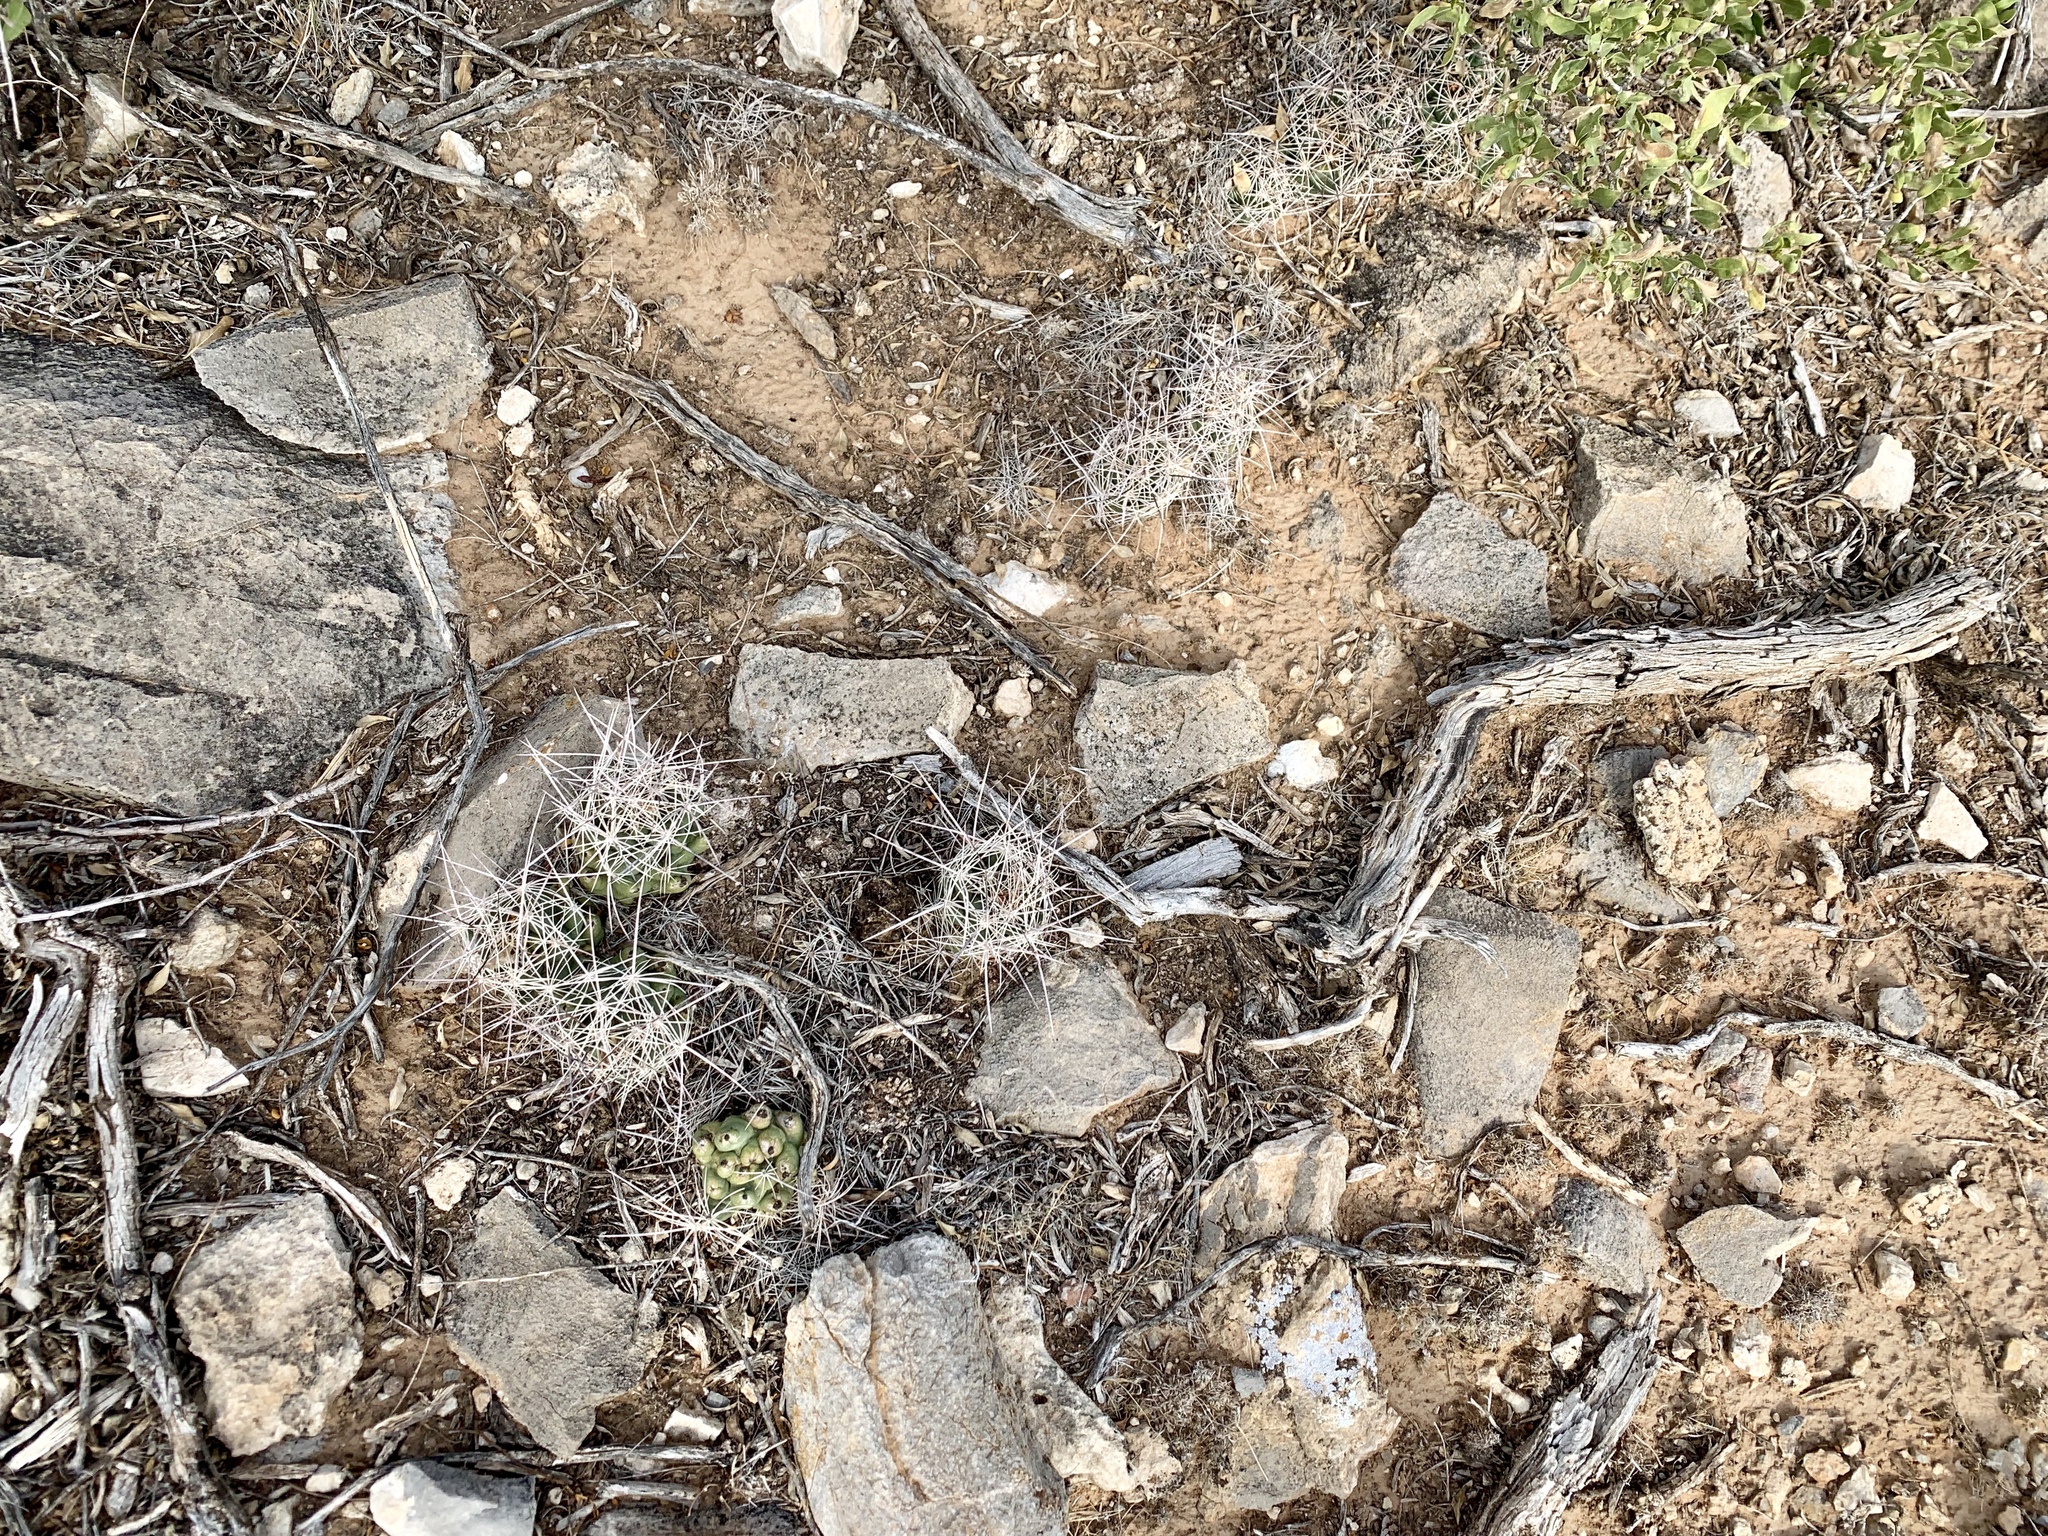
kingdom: Plantae
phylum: Tracheophyta
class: Magnoliopsida
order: Caryophyllales
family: Cactaceae
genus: Coryphantha
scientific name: Coryphantha macromeris
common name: Nipple beehive cactus
